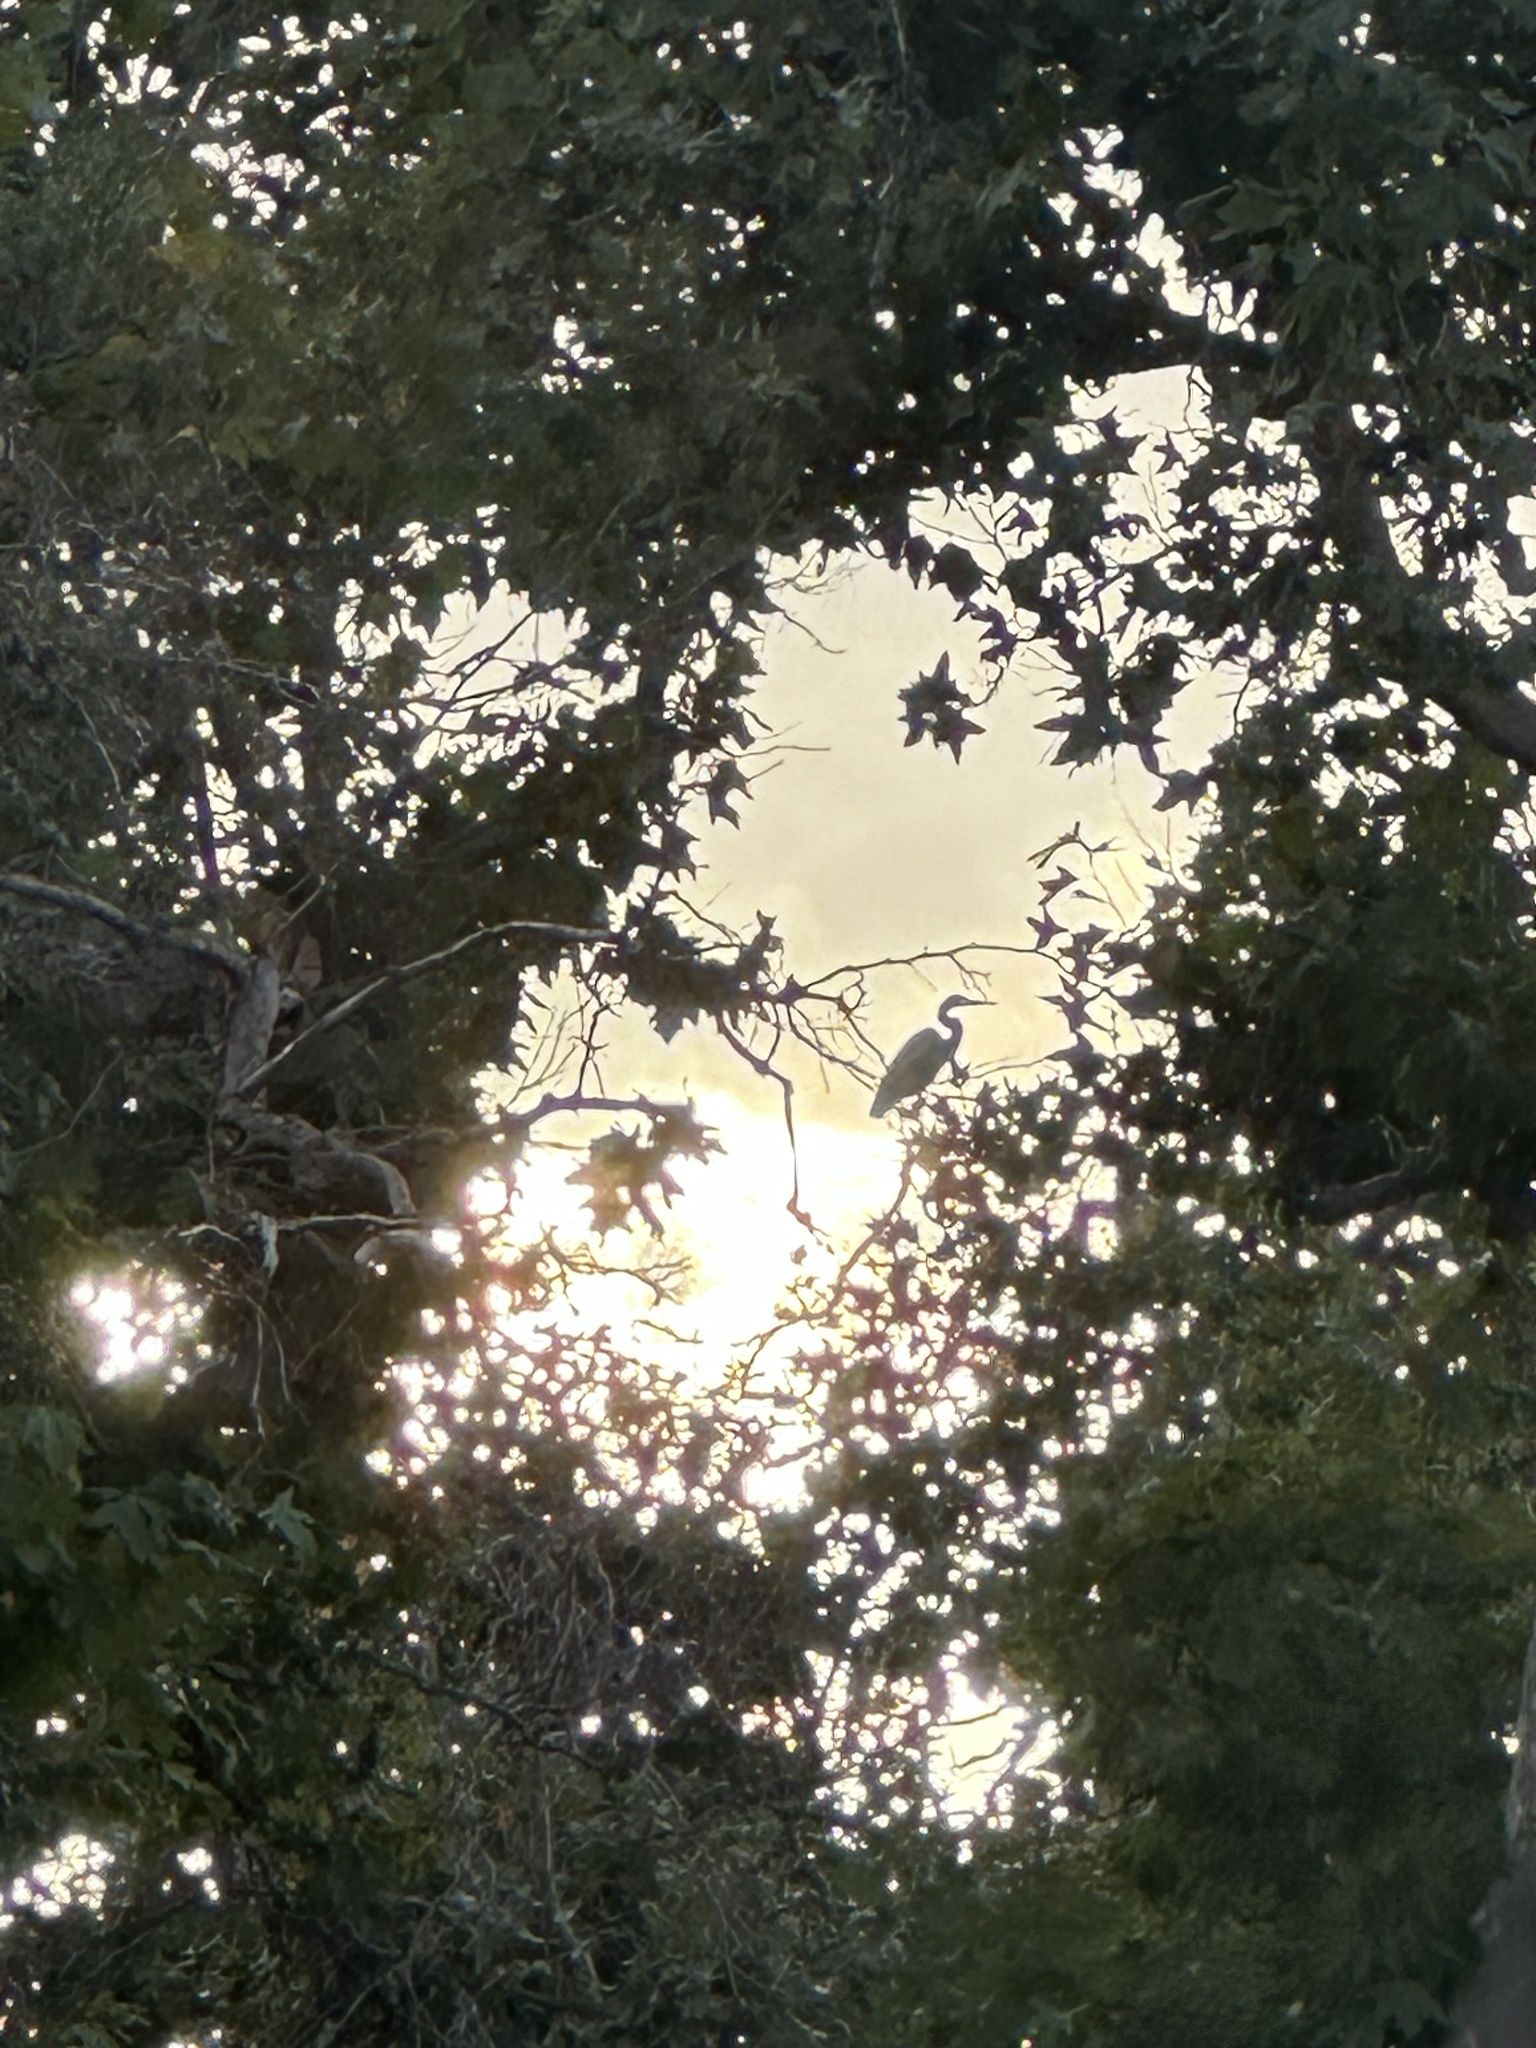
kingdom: Animalia
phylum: Chordata
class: Aves
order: Pelecaniformes
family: Ardeidae
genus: Ardea
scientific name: Ardea herodias
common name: Great blue heron
